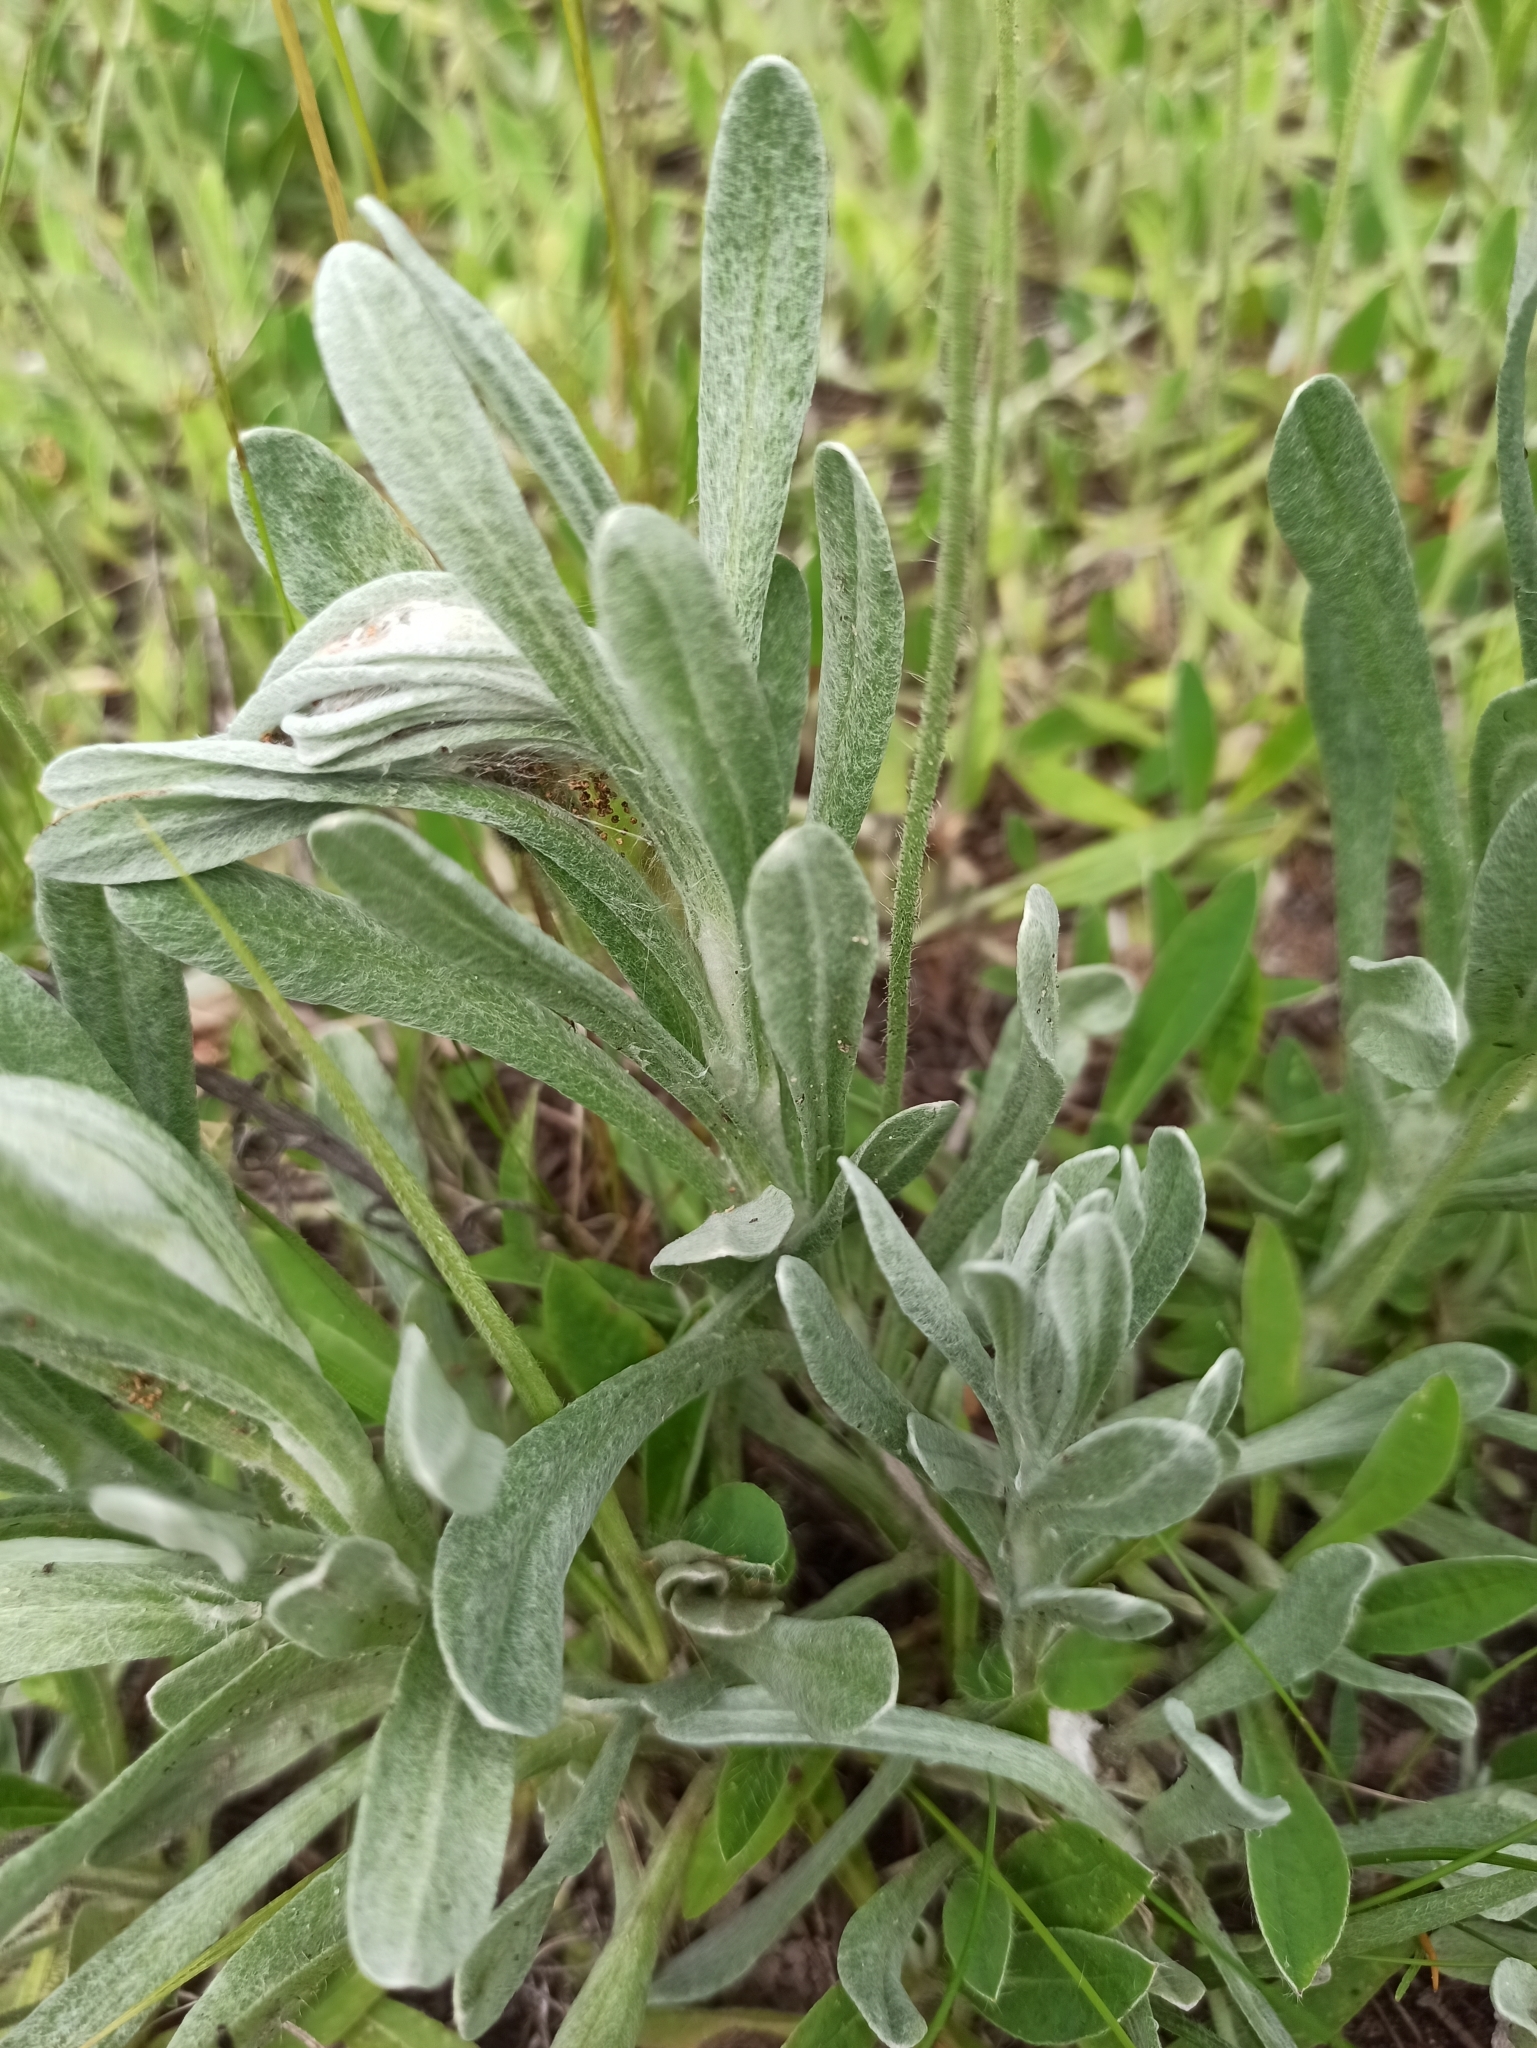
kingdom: Plantae
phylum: Tracheophyta
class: Magnoliopsida
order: Asterales
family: Asteraceae
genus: Helichrysum
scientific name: Helichrysum arenarium
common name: Strawflower
